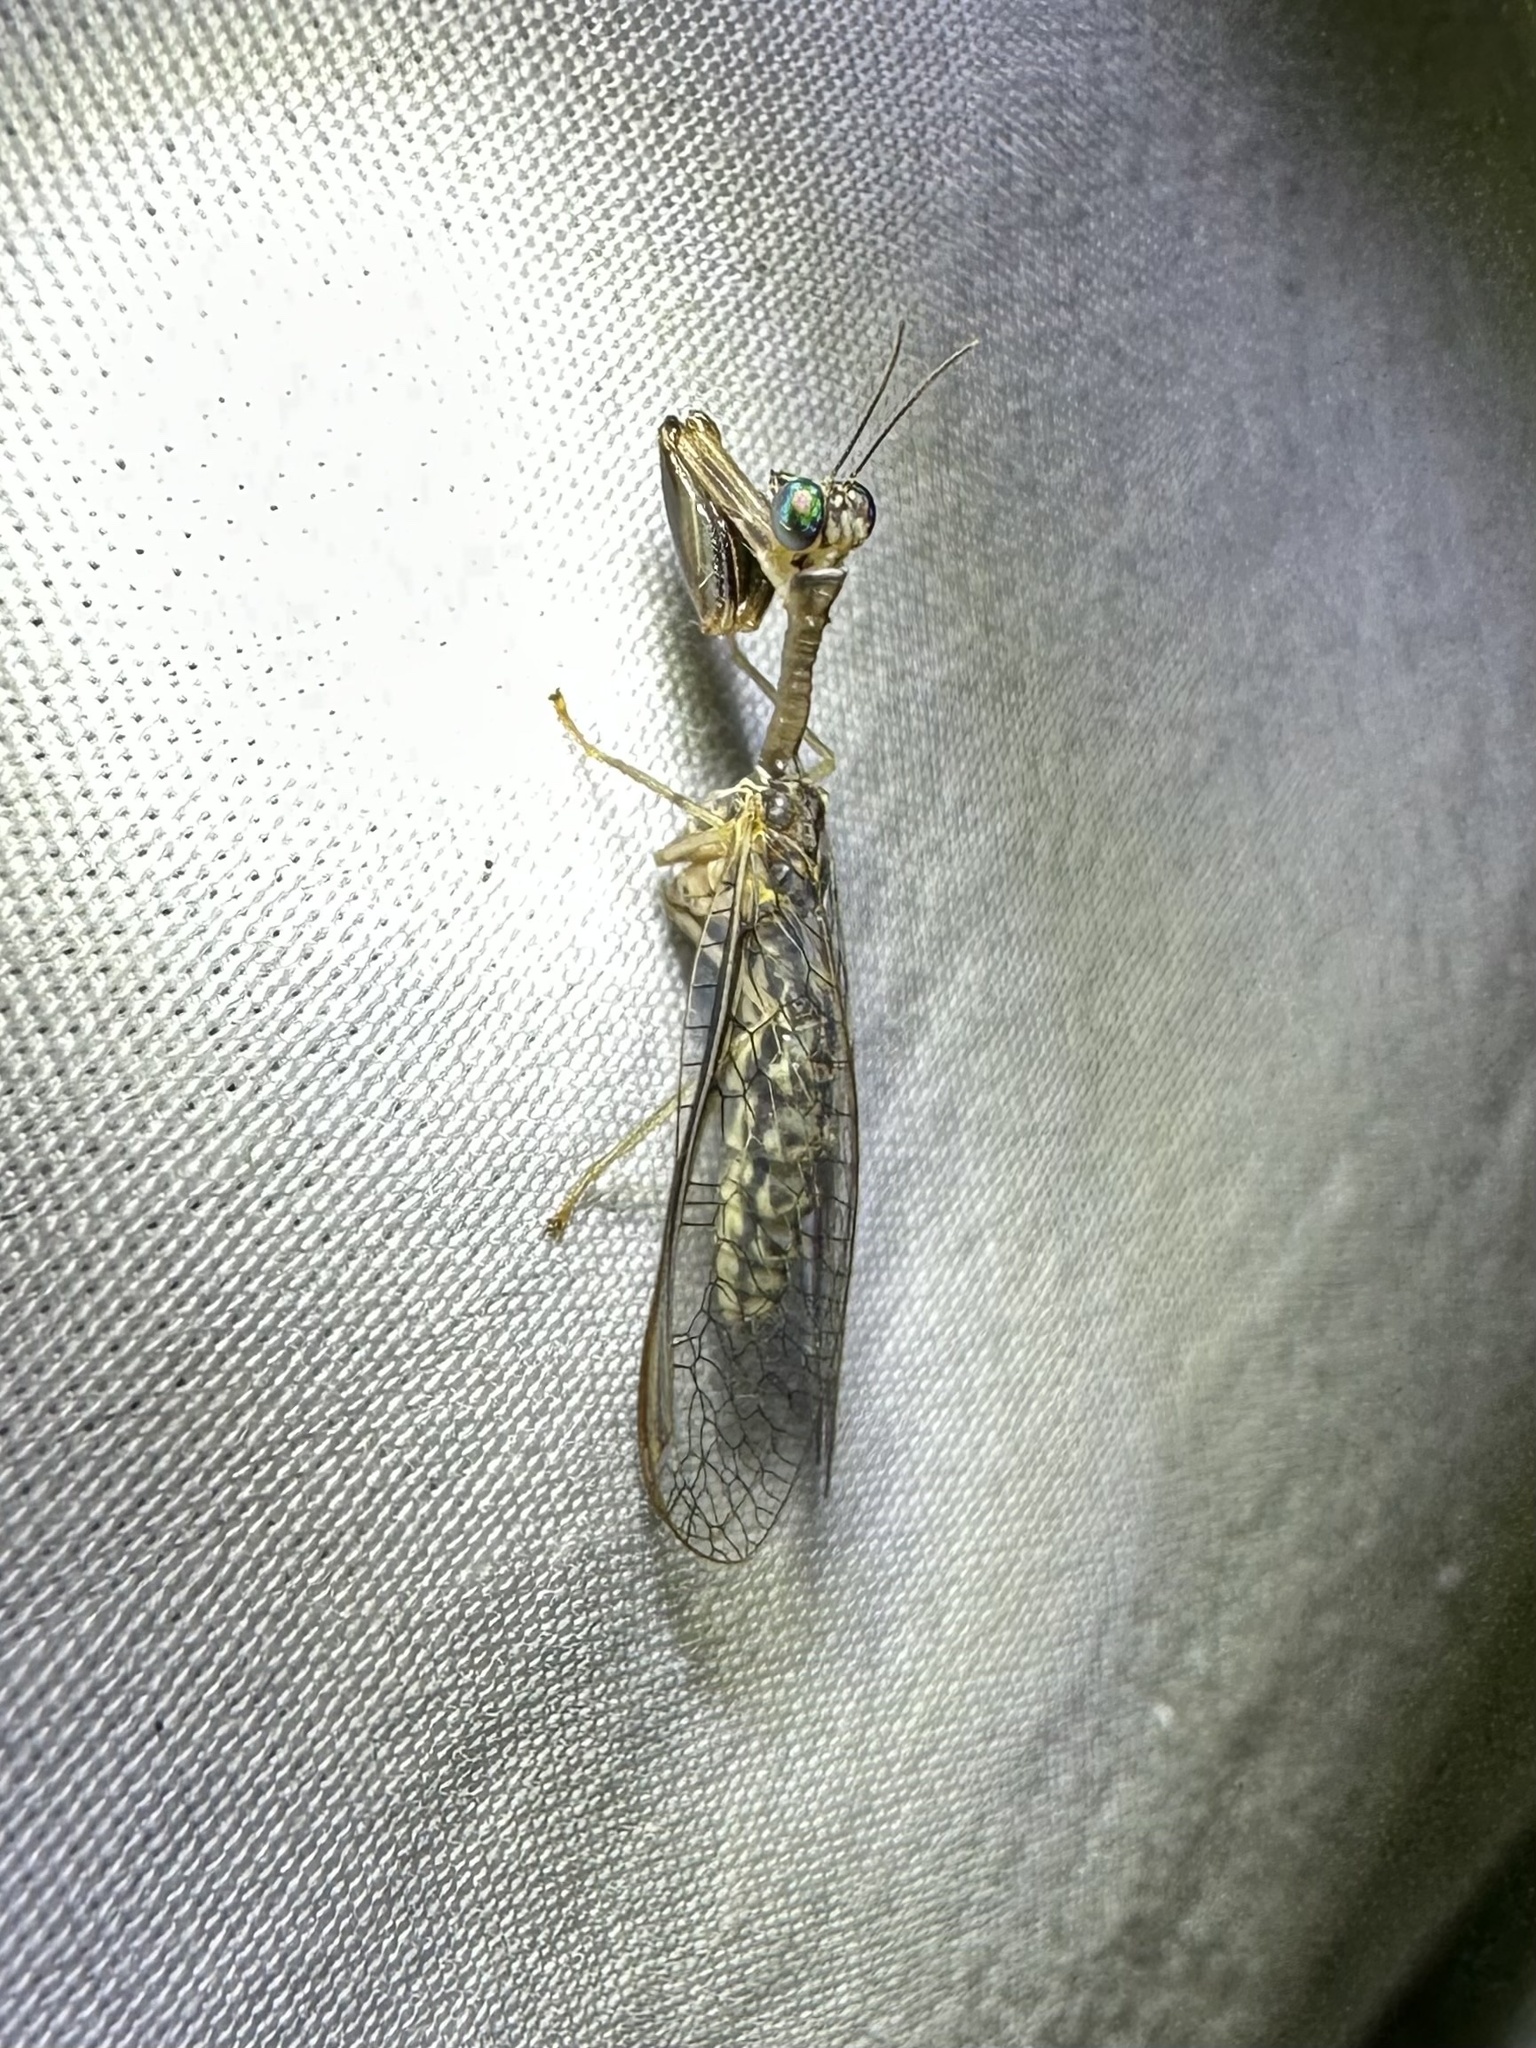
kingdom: Animalia
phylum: Arthropoda
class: Insecta
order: Neuroptera
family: Mantispidae
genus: Dicromantispa
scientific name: Dicromantispa sayi
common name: Say's mantidfly
